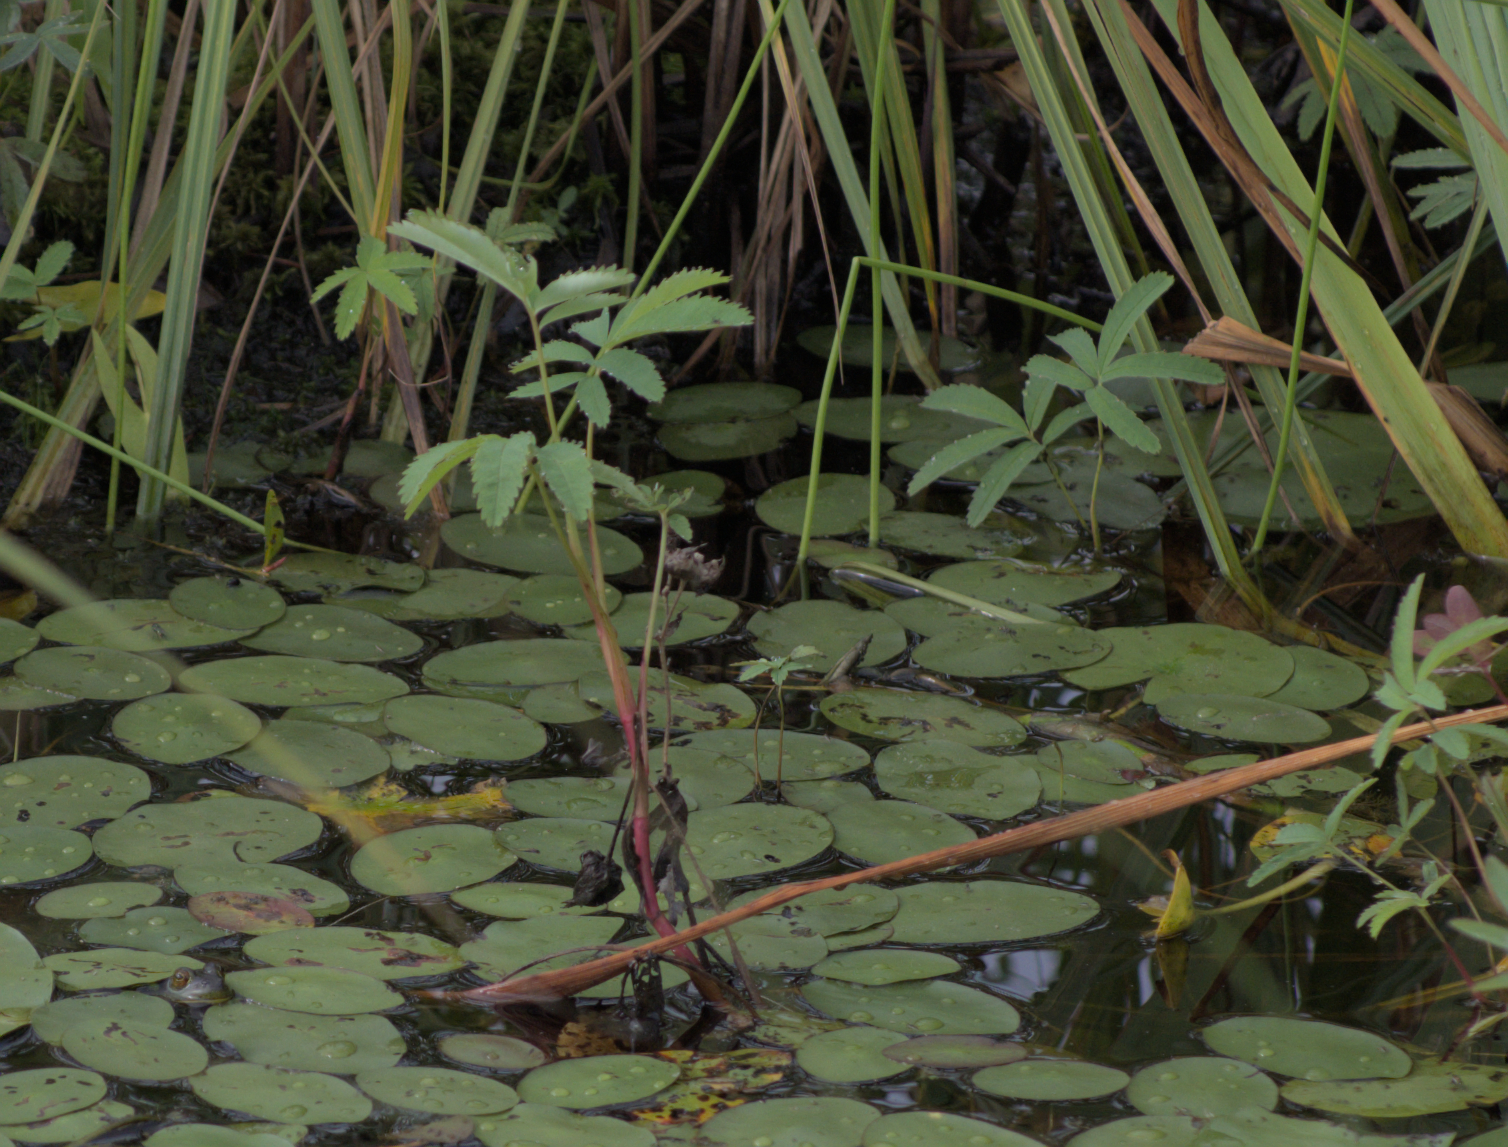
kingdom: Plantae
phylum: Tracheophyta
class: Magnoliopsida
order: Rosales
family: Rosaceae
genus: Comarum
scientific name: Comarum palustre
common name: Marsh cinquefoil
